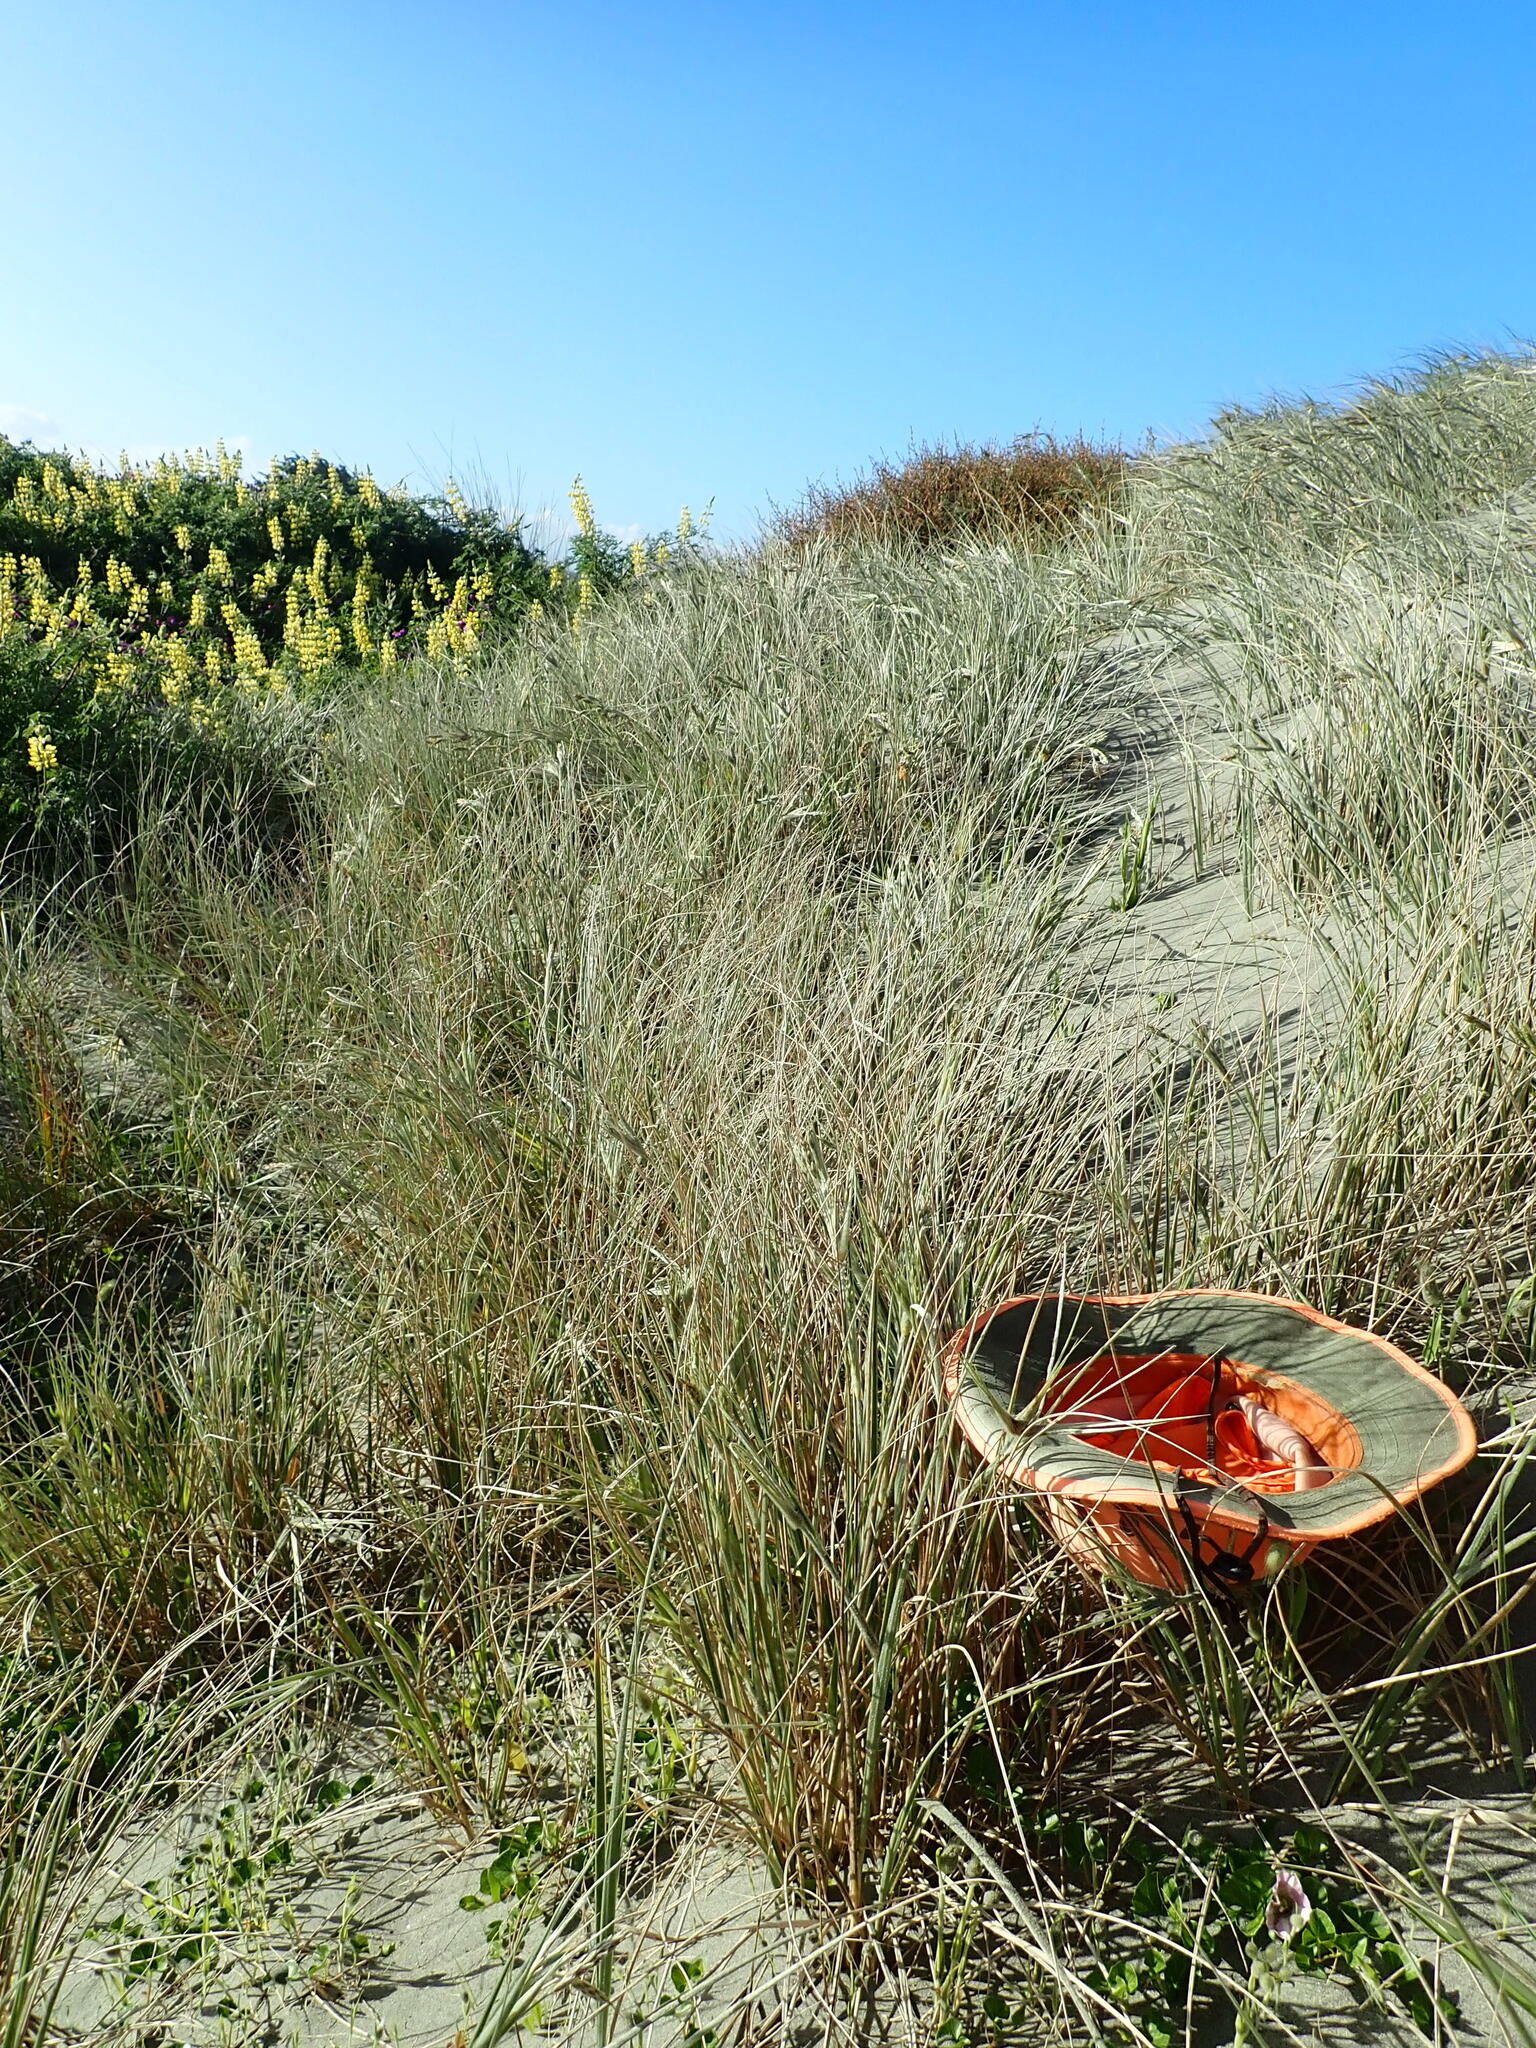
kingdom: Plantae
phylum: Tracheophyta
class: Magnoliopsida
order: Solanales
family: Convolvulaceae
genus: Calystegia
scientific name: Calystegia soldanella
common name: Sea bindweed
